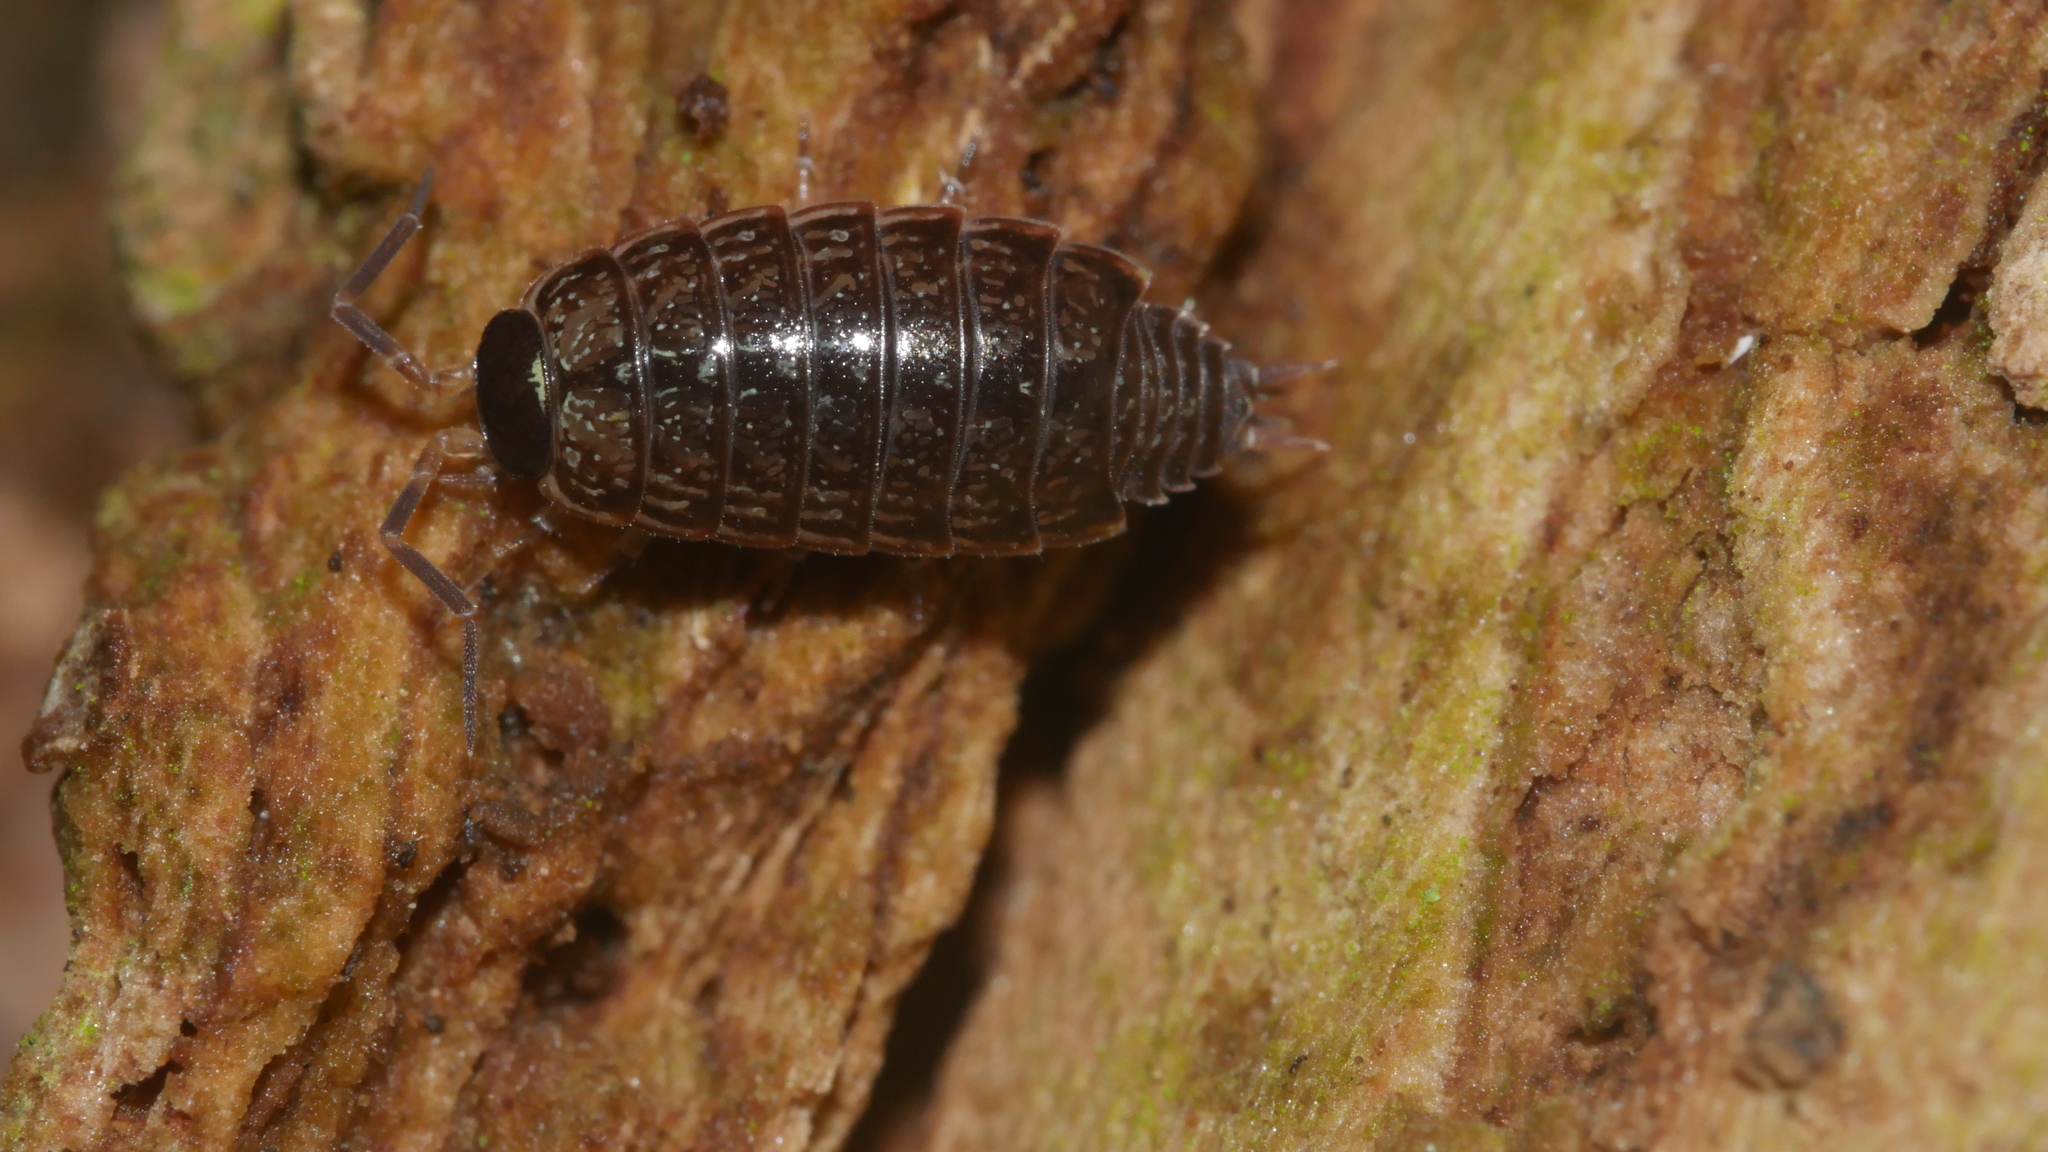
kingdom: Animalia
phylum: Arthropoda
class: Malacostraca
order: Isopoda
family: Philosciidae
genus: Philoscia
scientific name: Philoscia muscorum
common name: Common striped woodlouse
